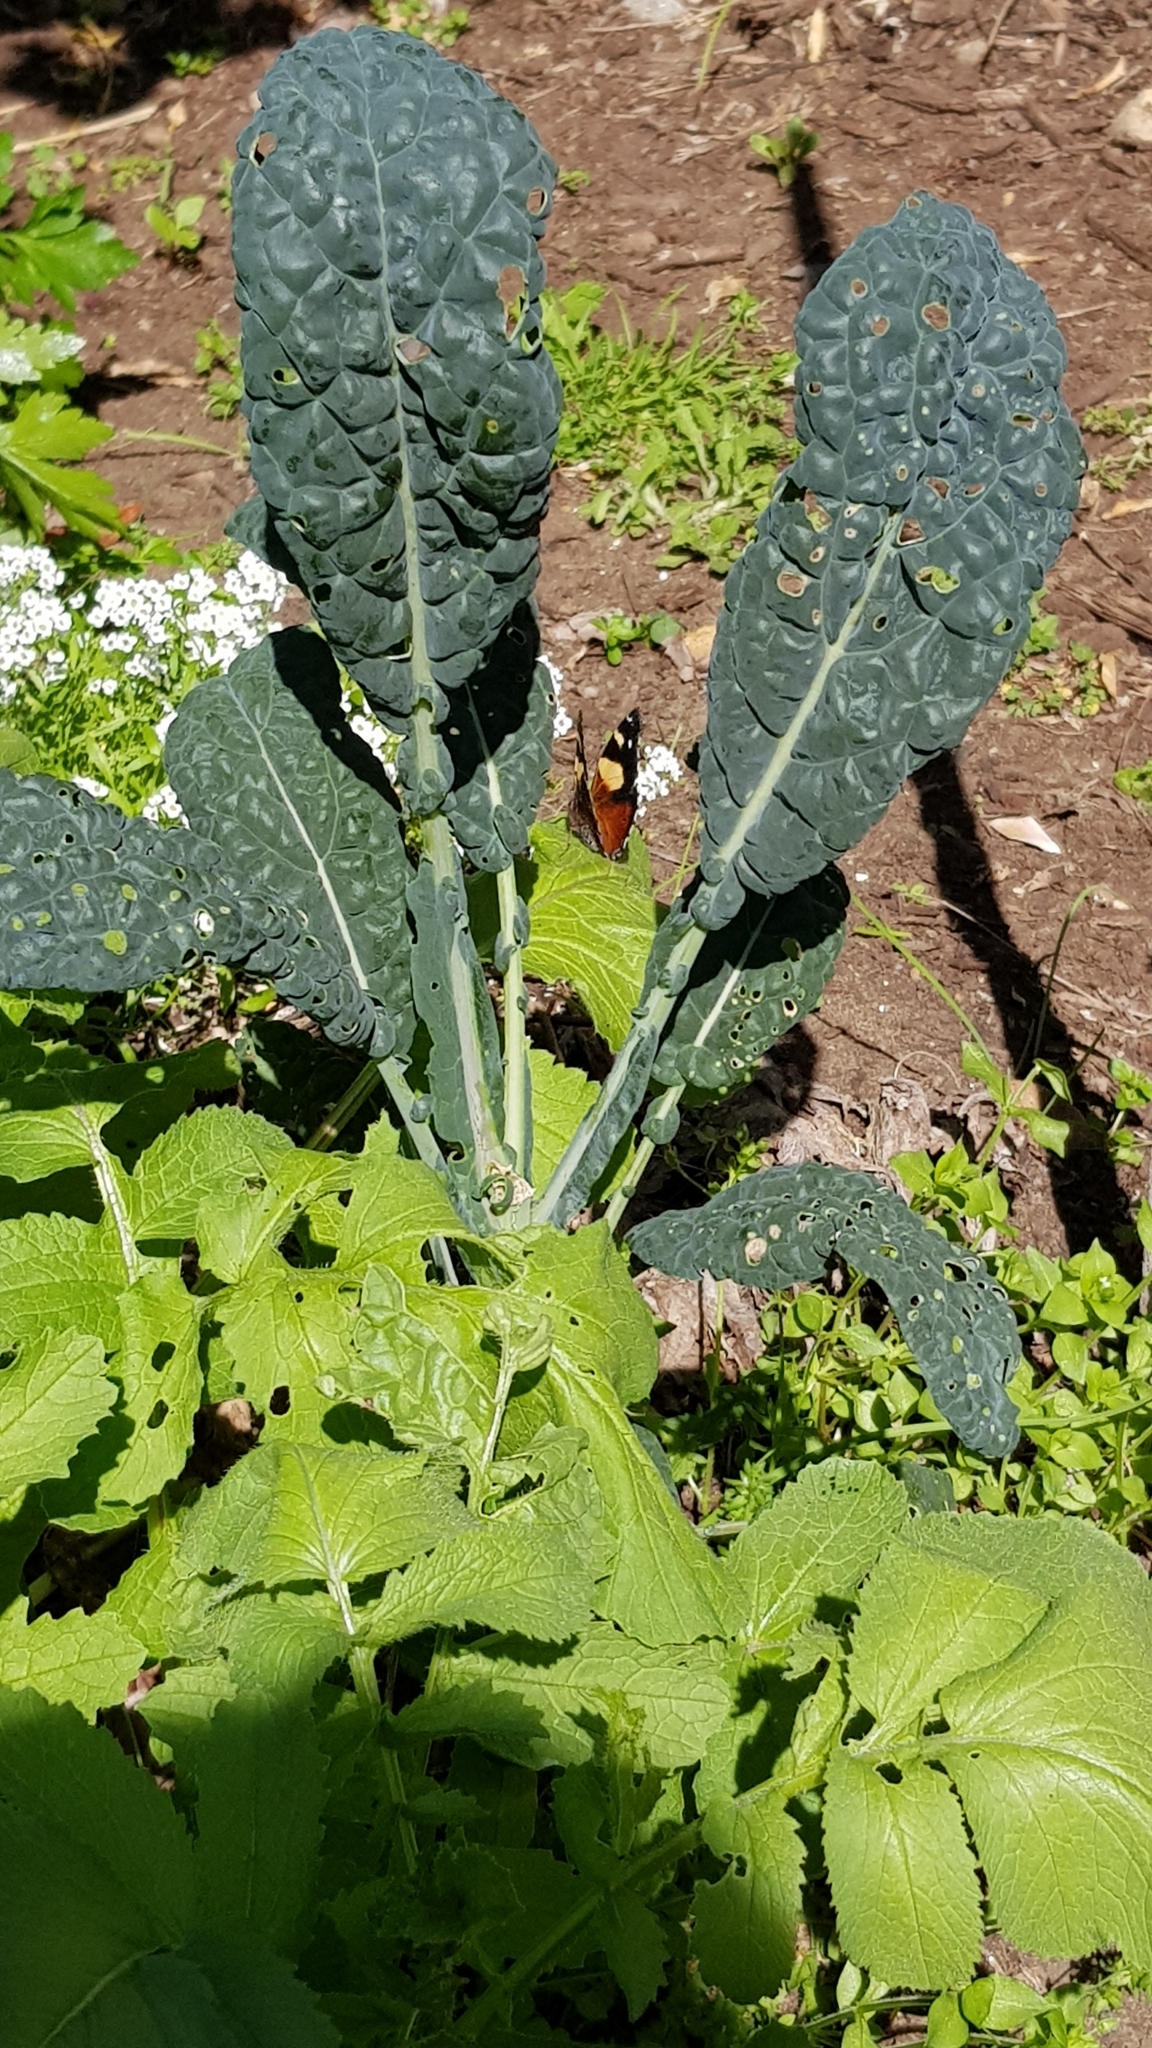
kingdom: Animalia
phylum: Arthropoda
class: Insecta
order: Lepidoptera
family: Nymphalidae
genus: Vanessa
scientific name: Vanessa itea
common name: Yellow admiral
